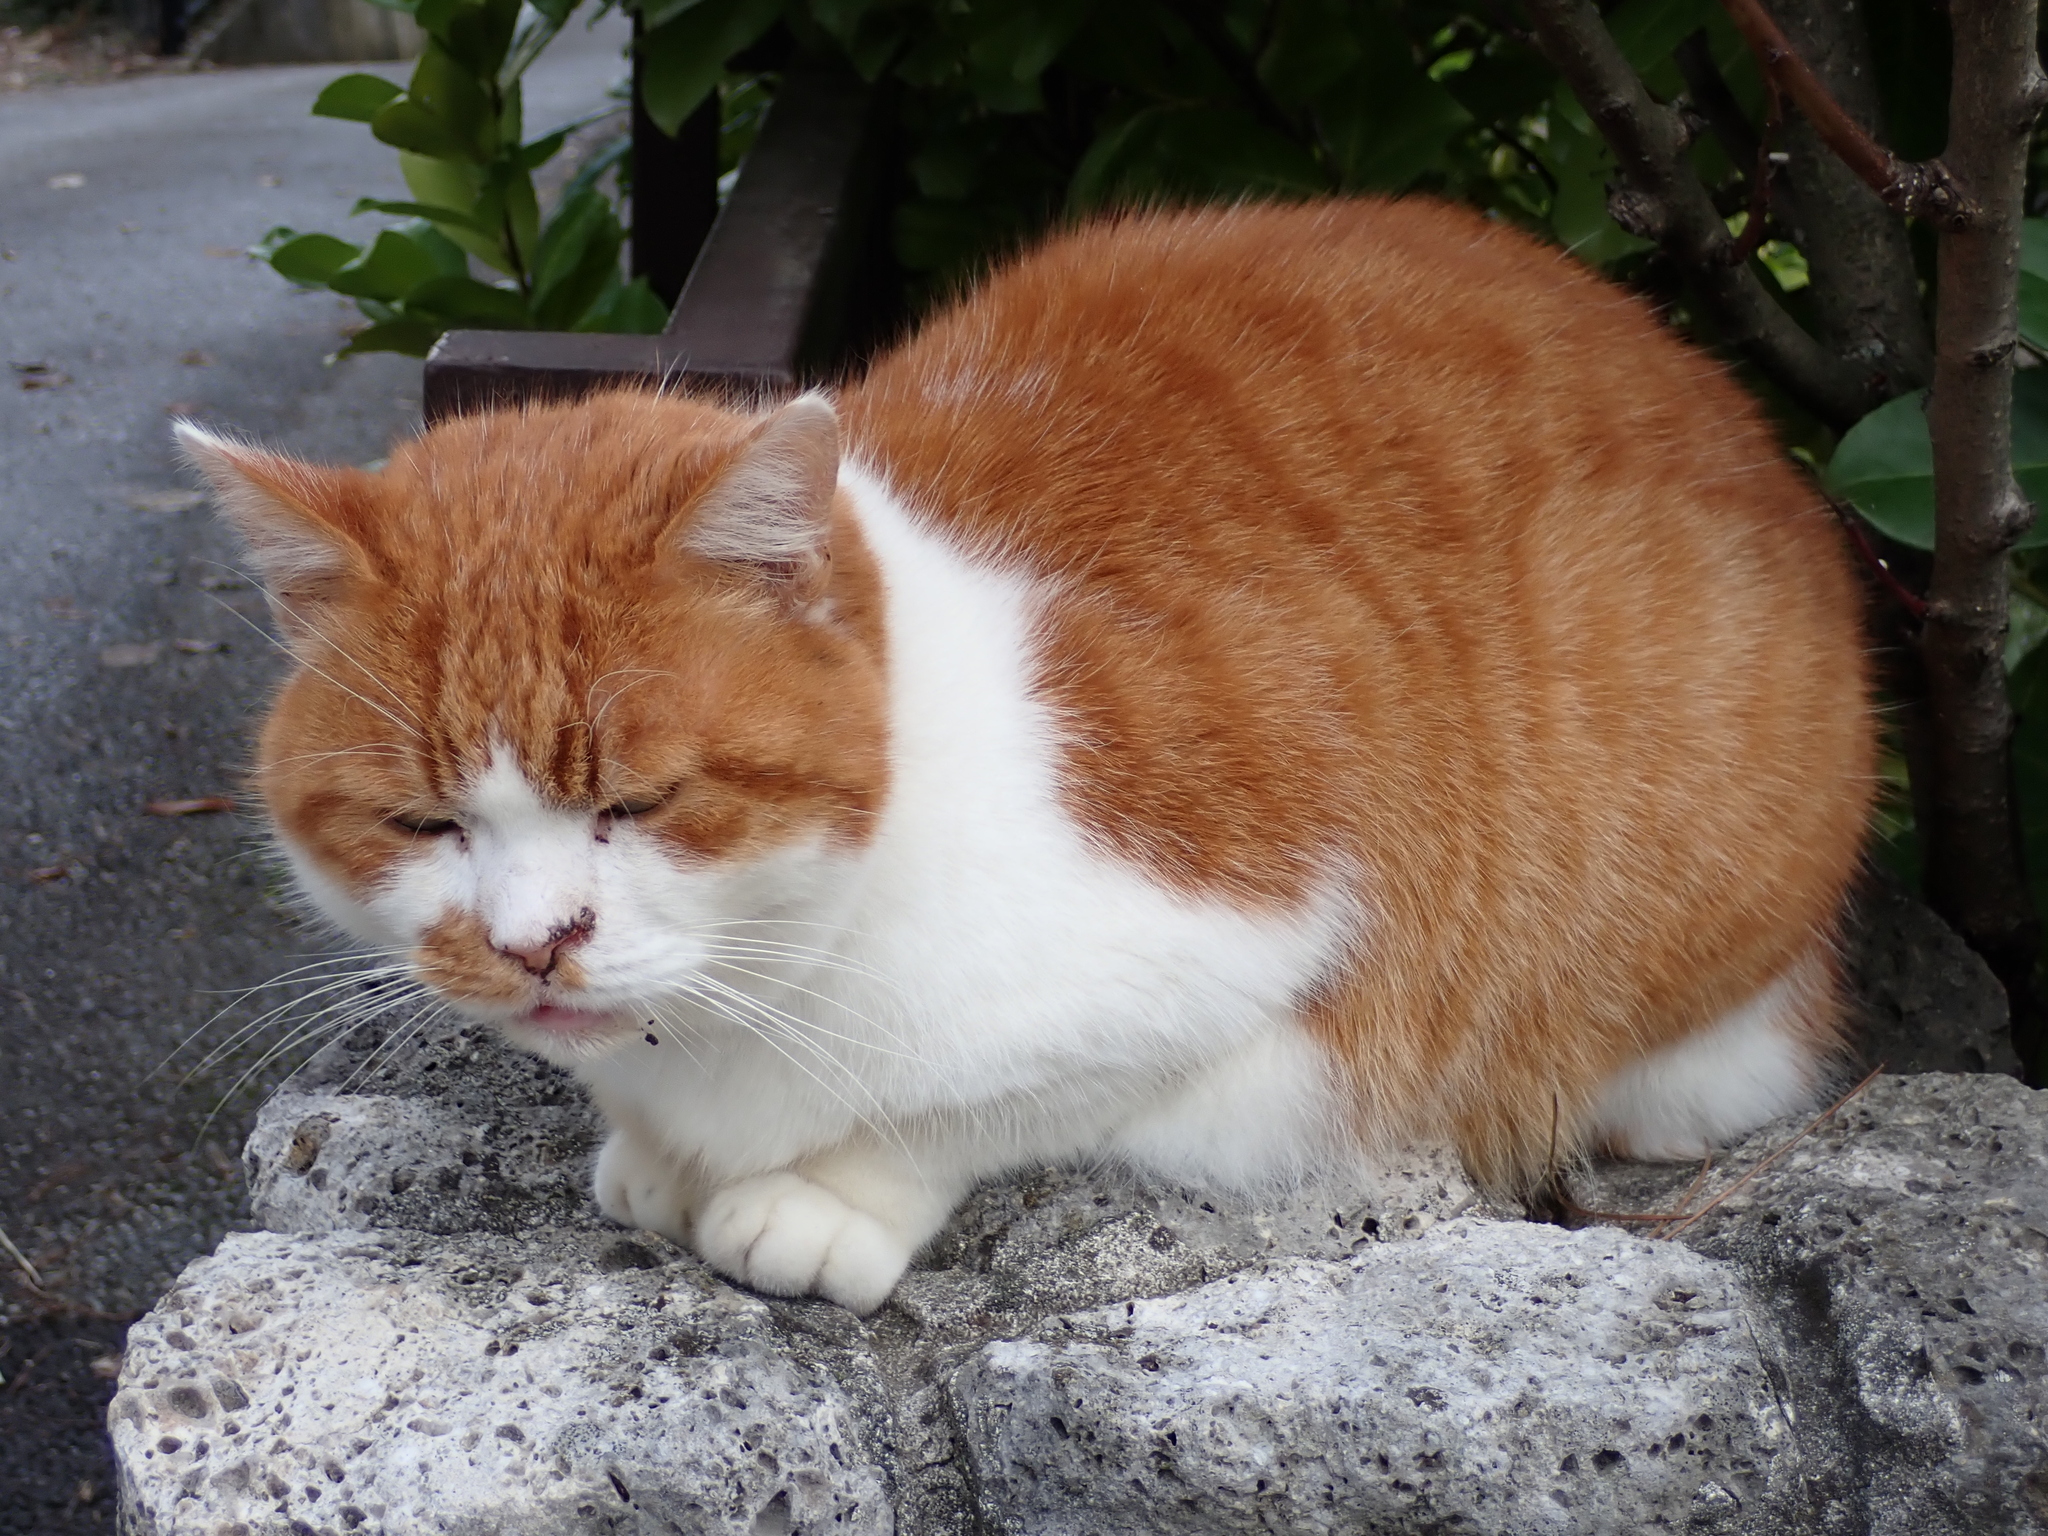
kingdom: Animalia
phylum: Chordata
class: Mammalia
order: Carnivora
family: Felidae
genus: Felis
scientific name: Felis catus
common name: Domestic cat
